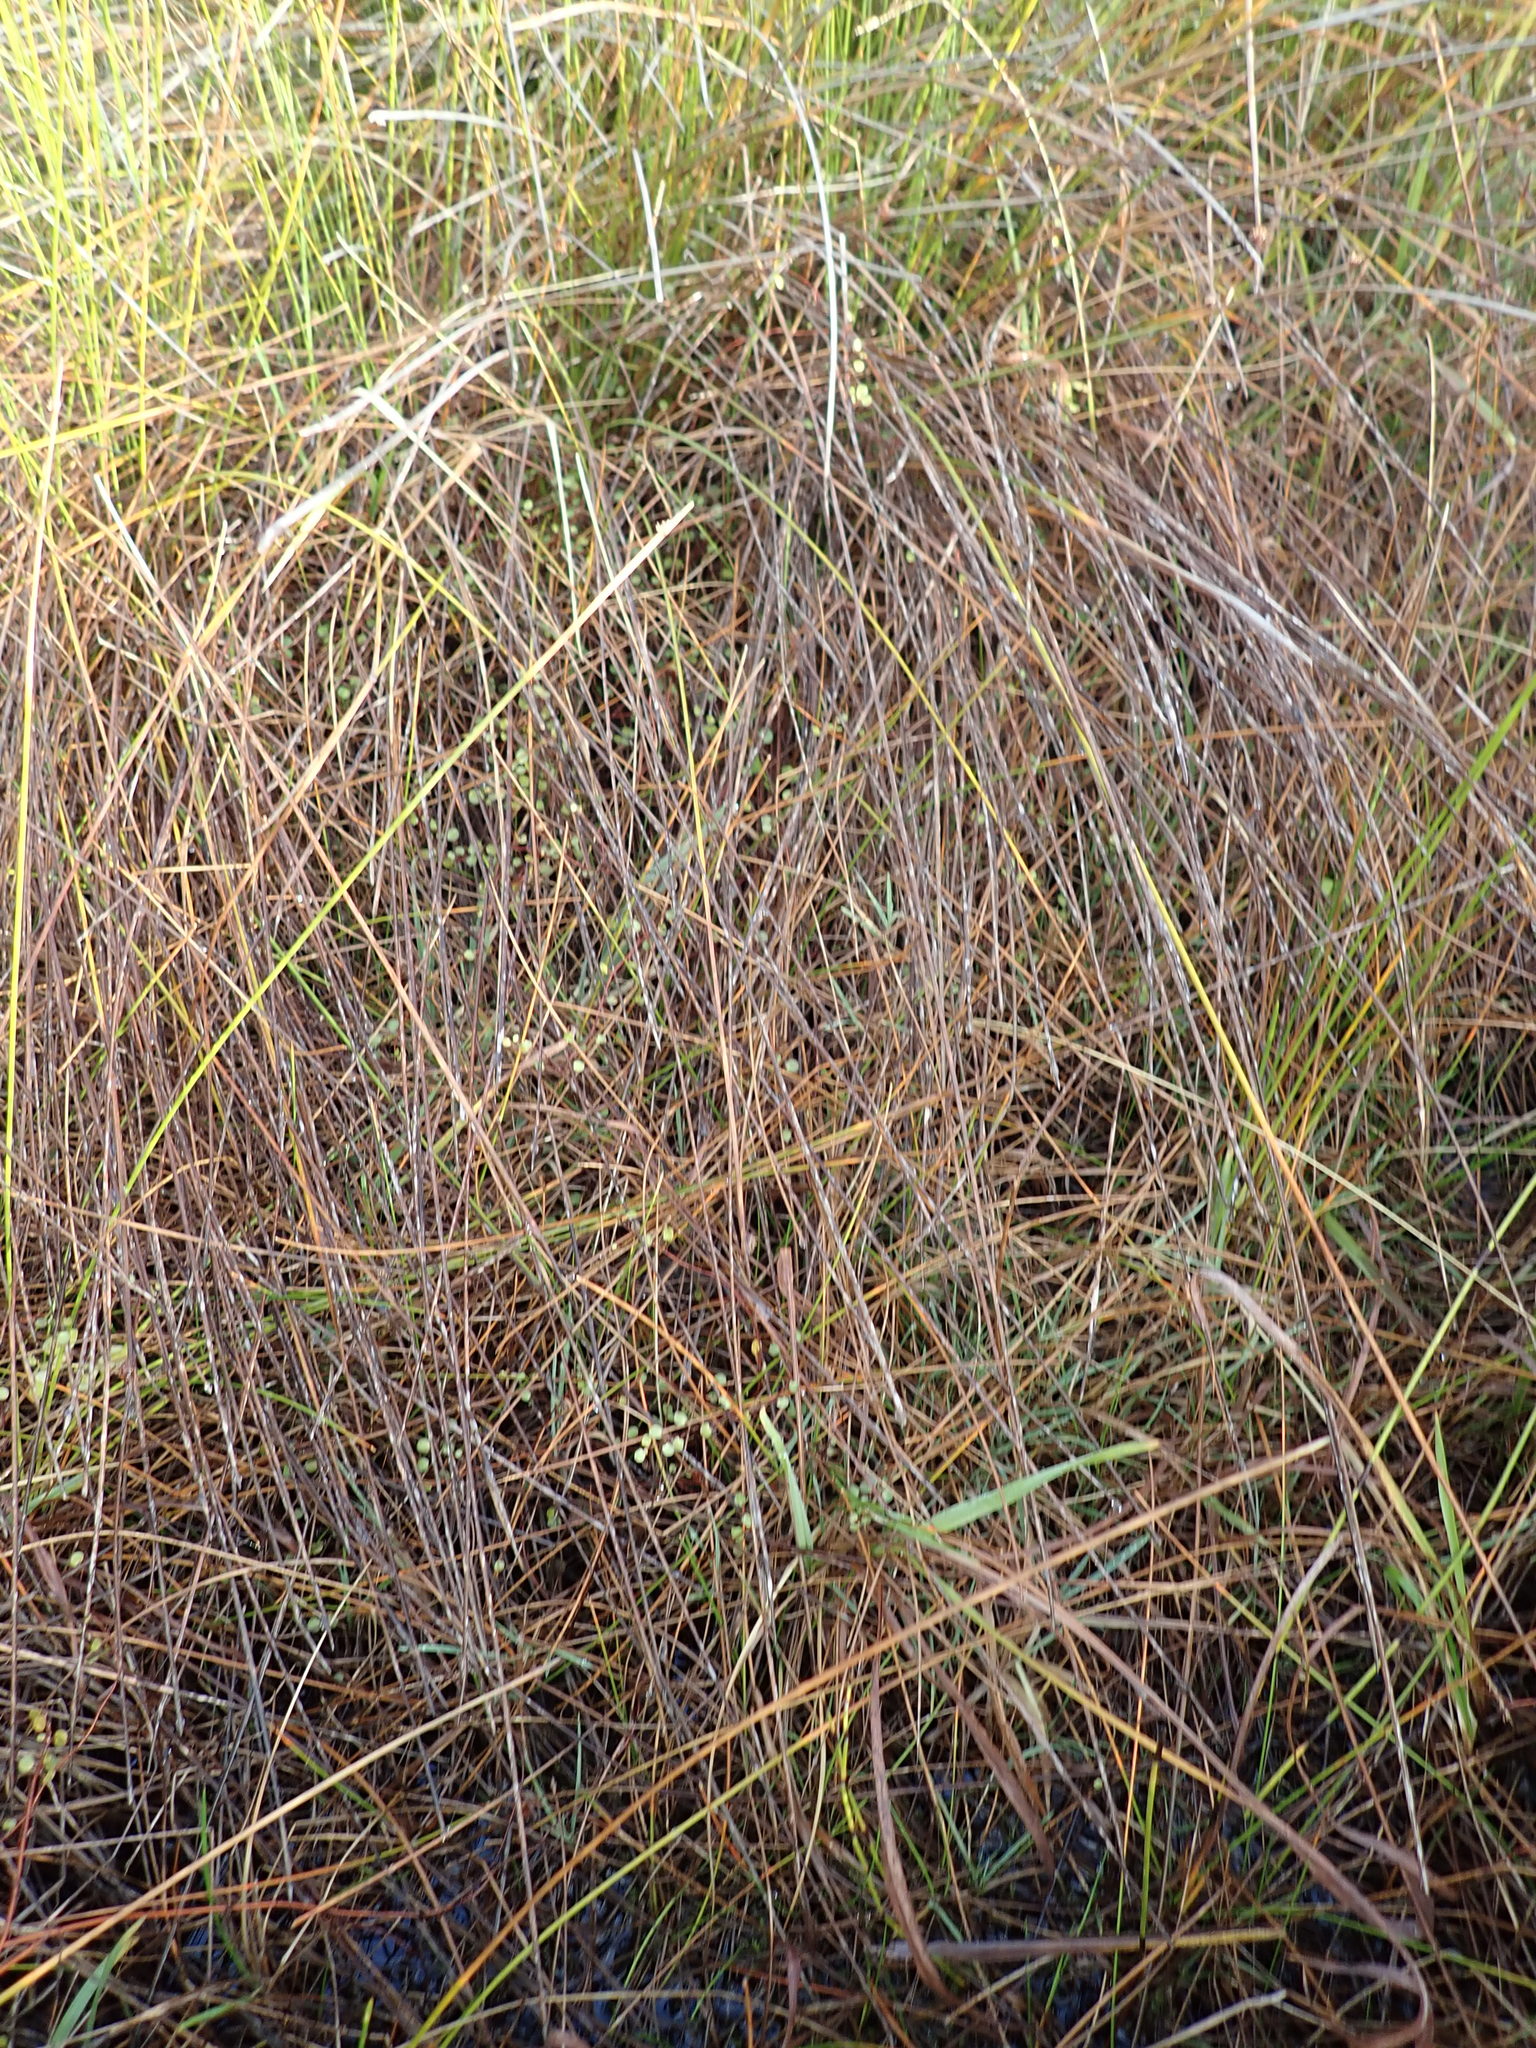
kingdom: Plantae
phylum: Tracheophyta
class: Magnoliopsida
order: Caryophyllales
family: Polygonaceae
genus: Muehlenbeckia
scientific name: Muehlenbeckia complexa
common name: Wireplant
